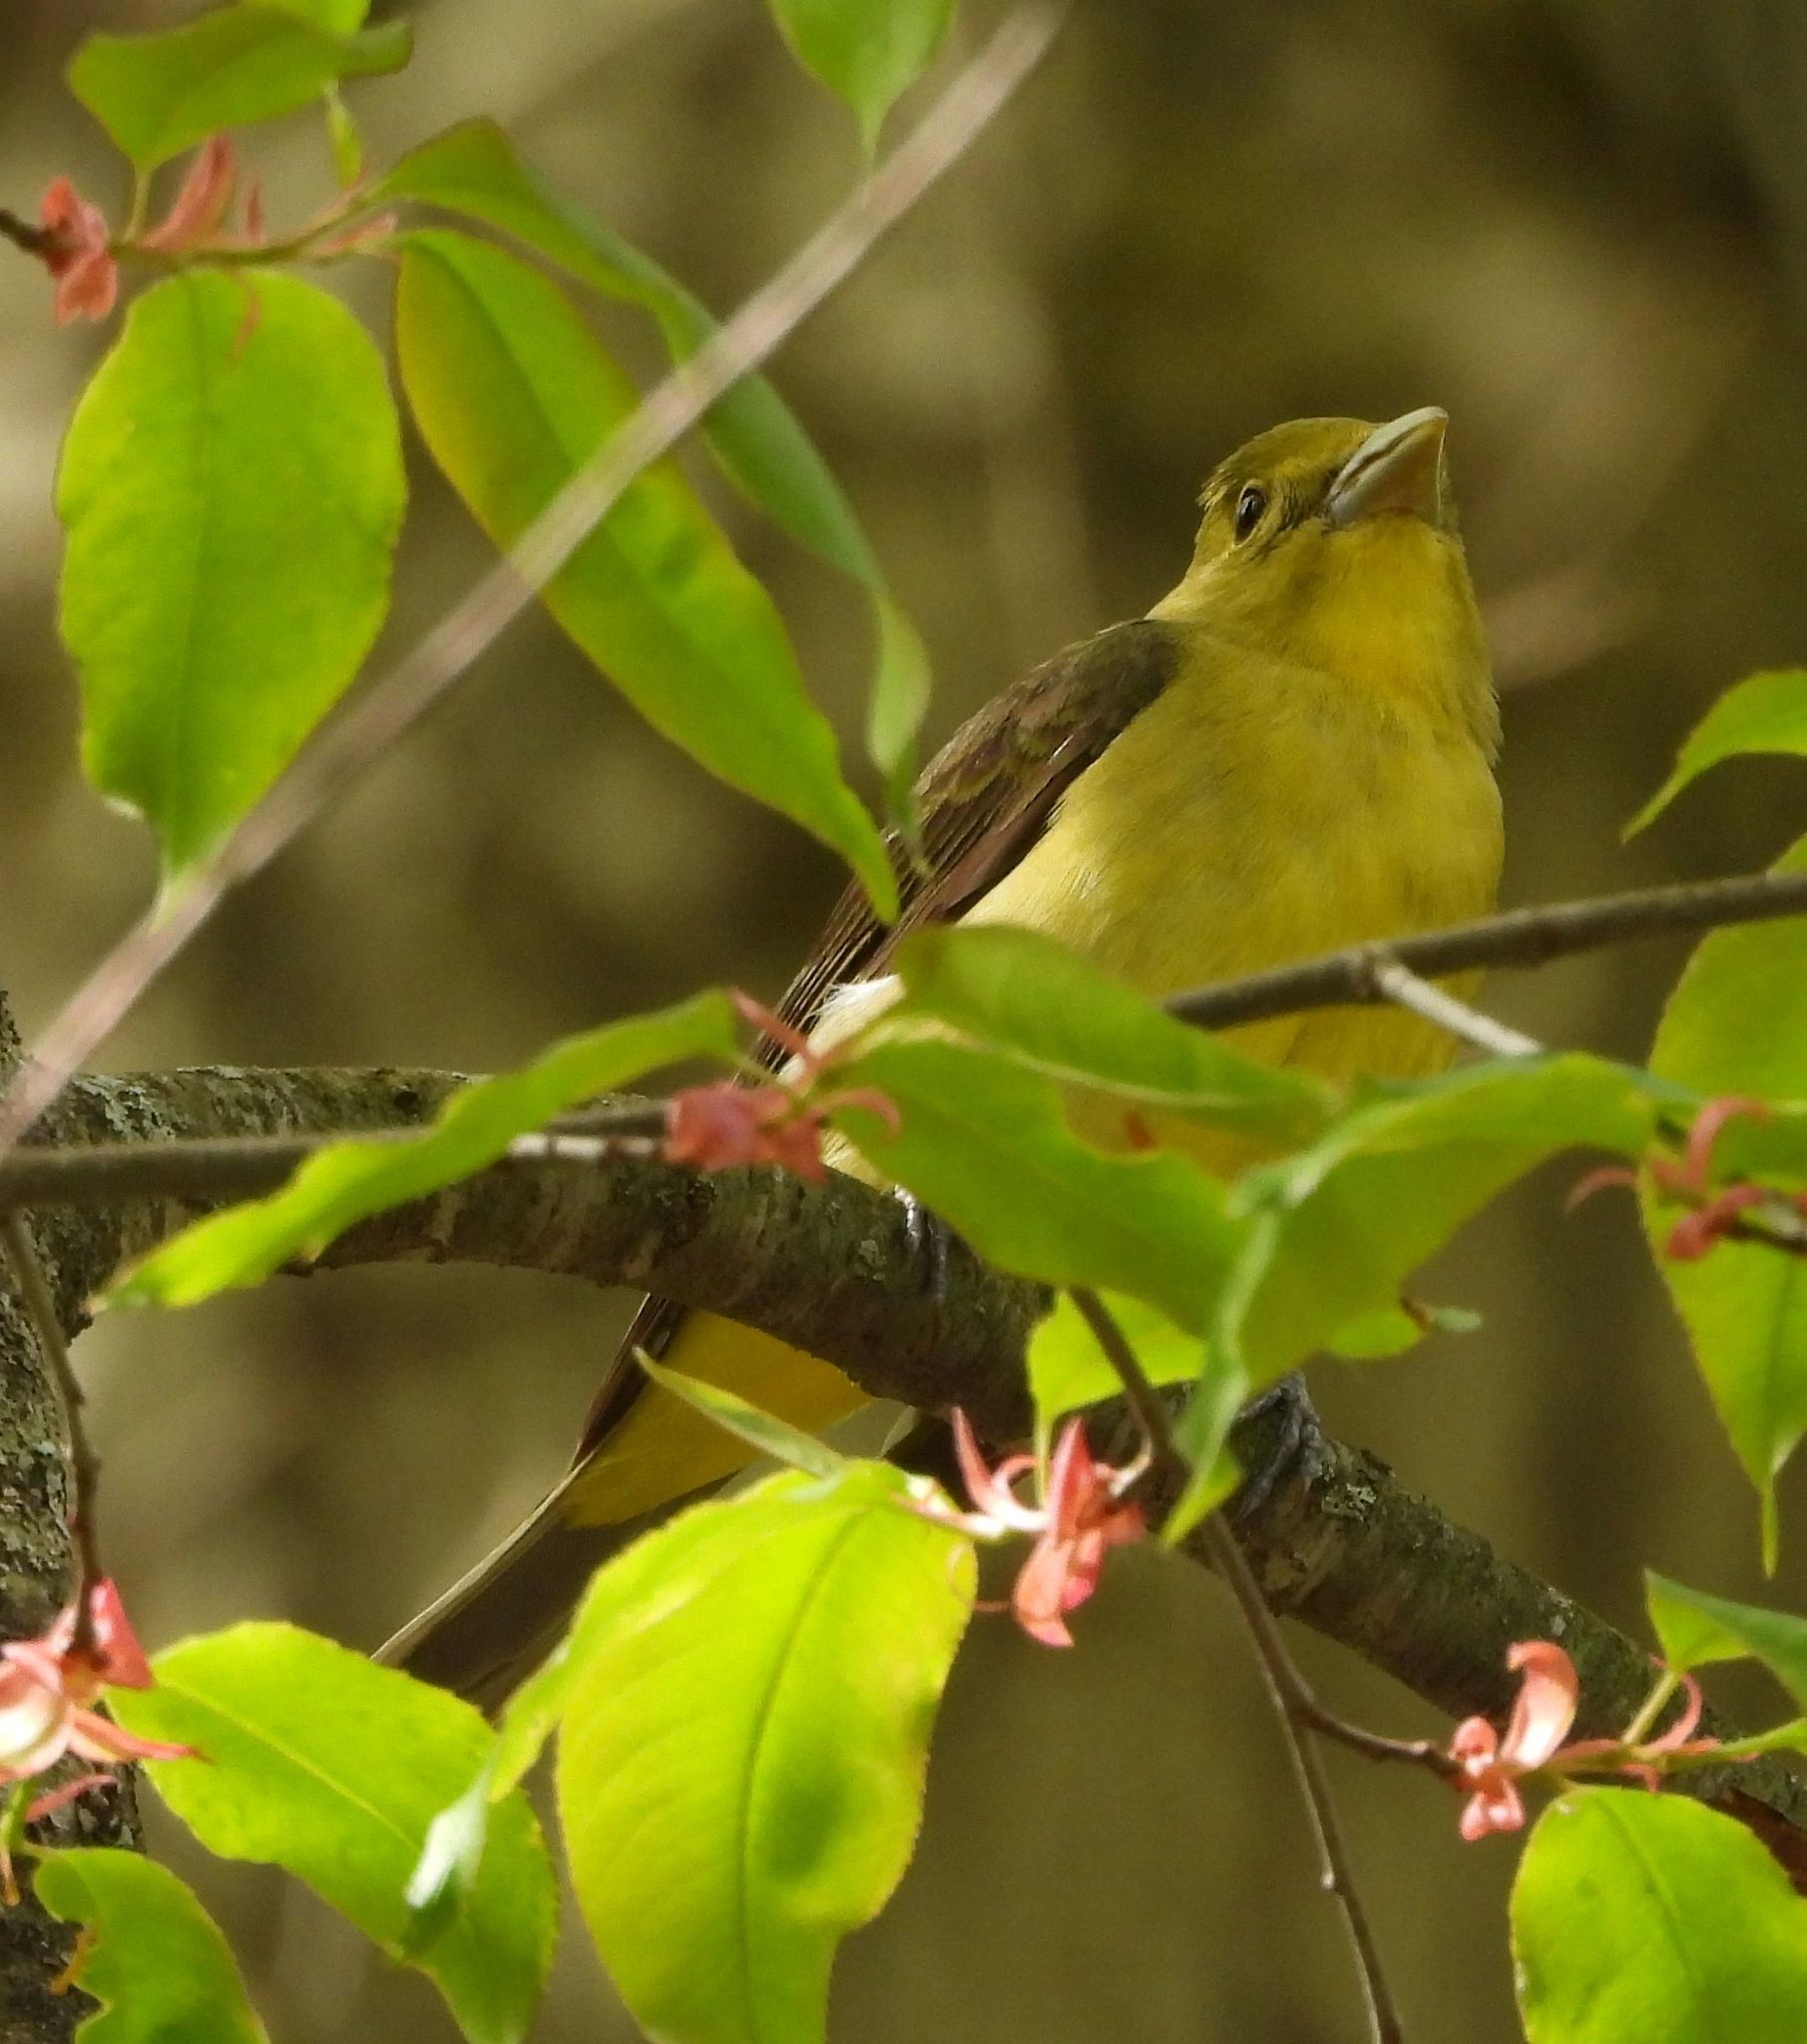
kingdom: Animalia
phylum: Chordata
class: Aves
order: Passeriformes
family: Cardinalidae
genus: Piranga
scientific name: Piranga olivacea
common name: Scarlet tanager
